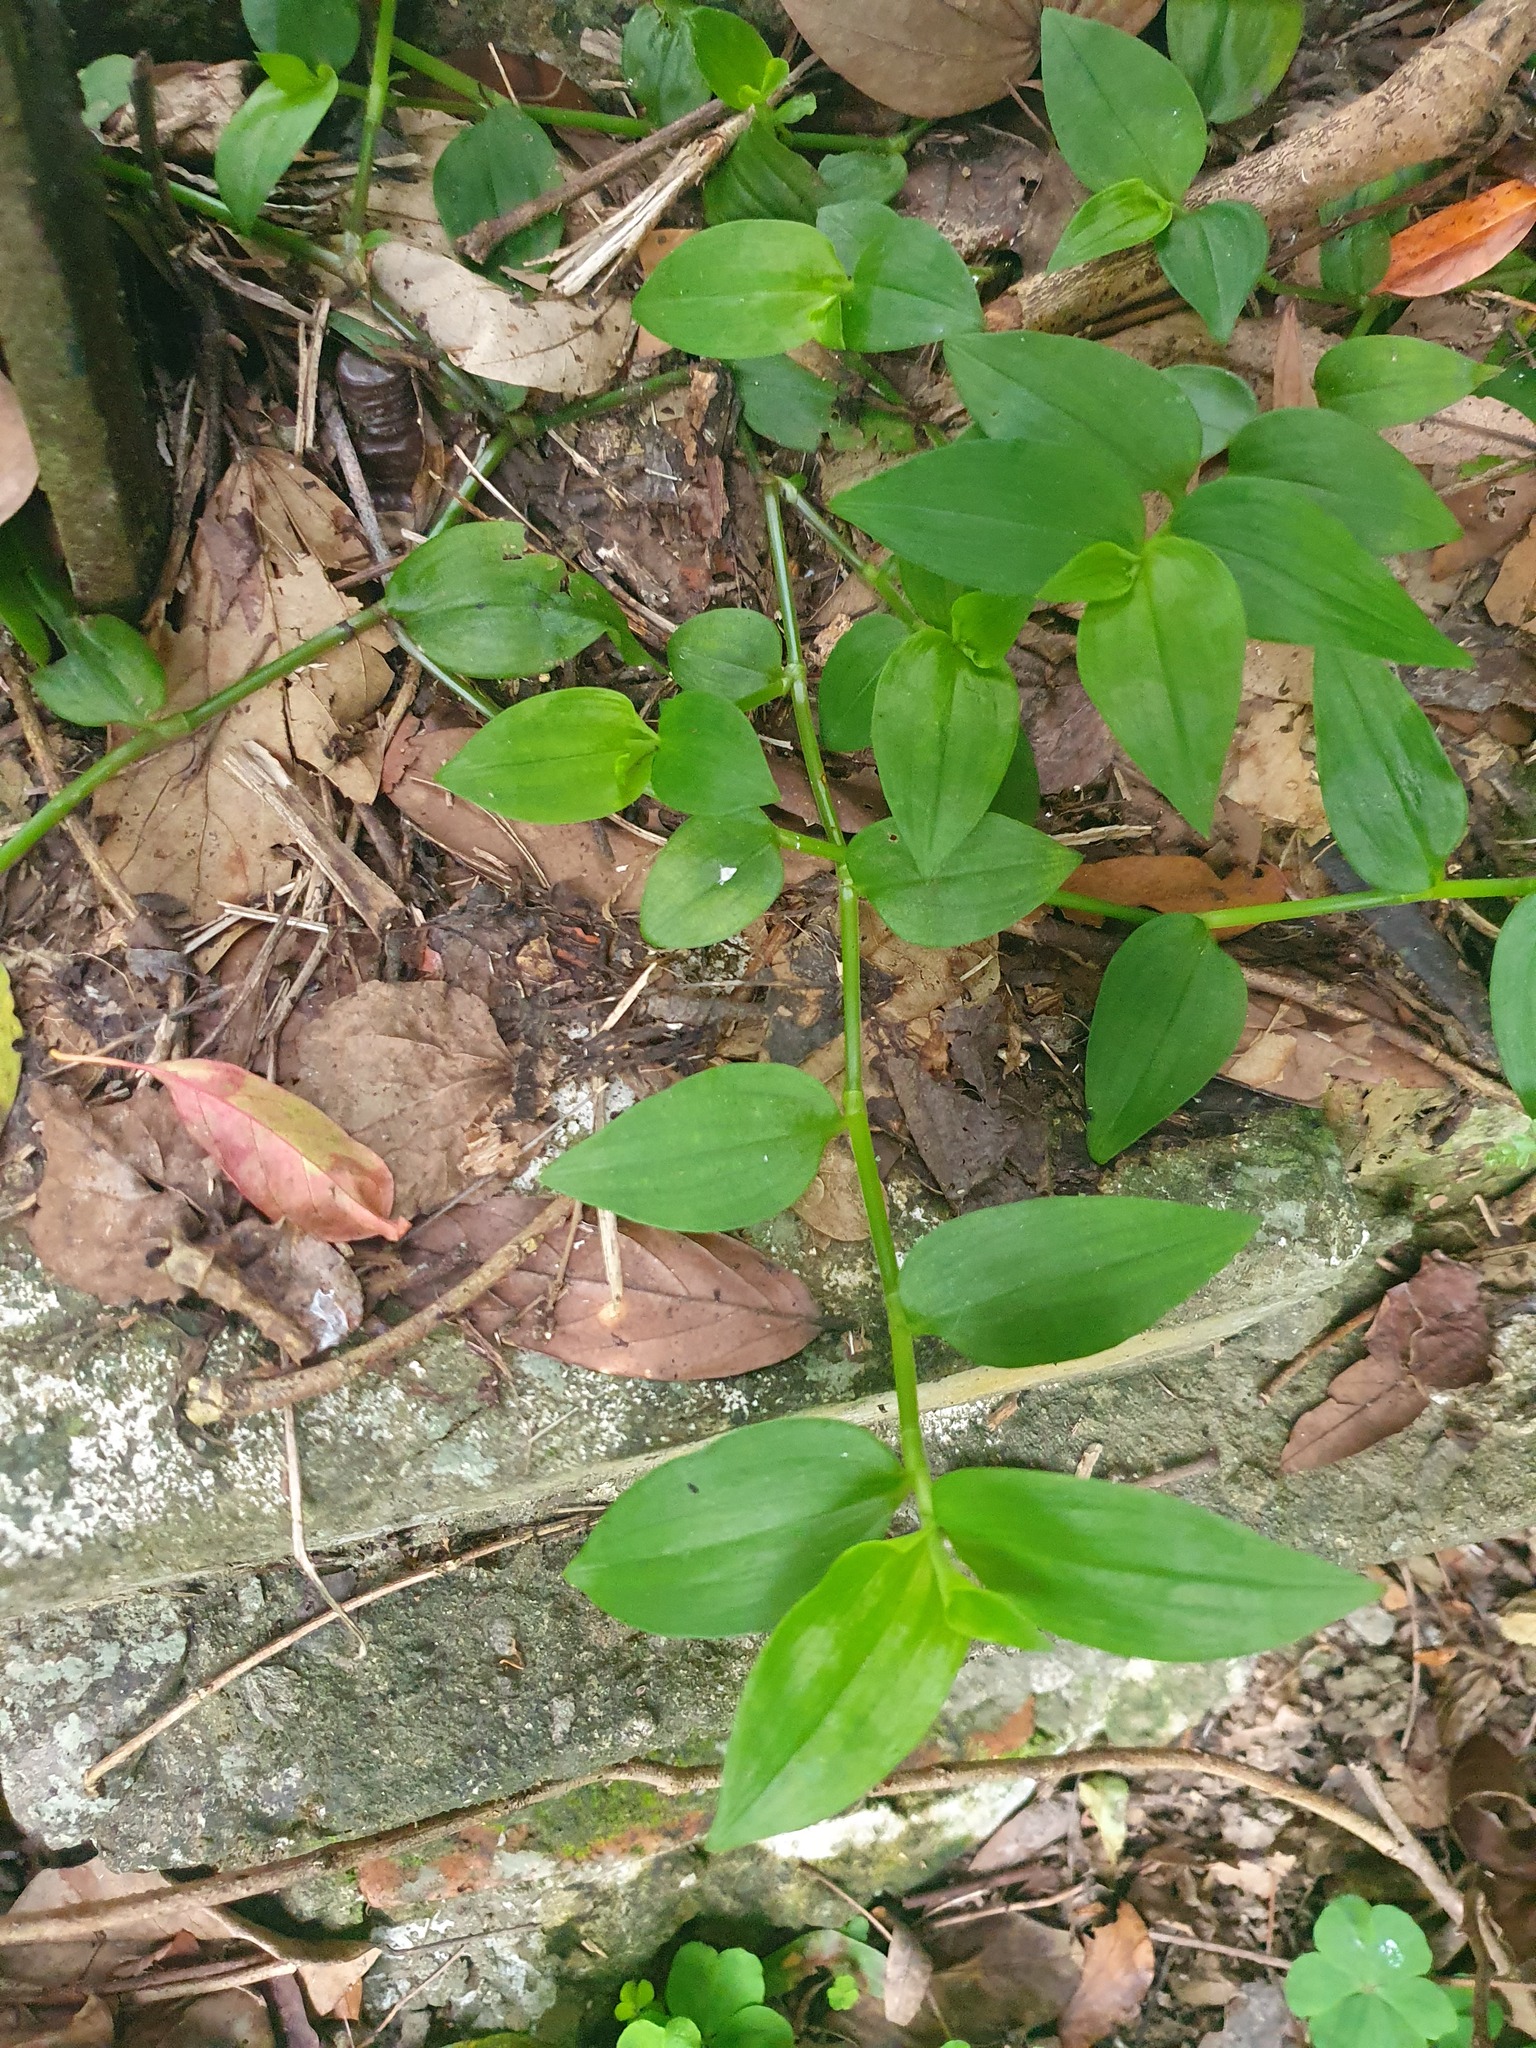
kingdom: Plantae
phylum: Tracheophyta
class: Liliopsida
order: Commelinales
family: Commelinaceae
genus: Tradescantia
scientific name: Tradescantia fluminensis
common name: Wandering-jew
